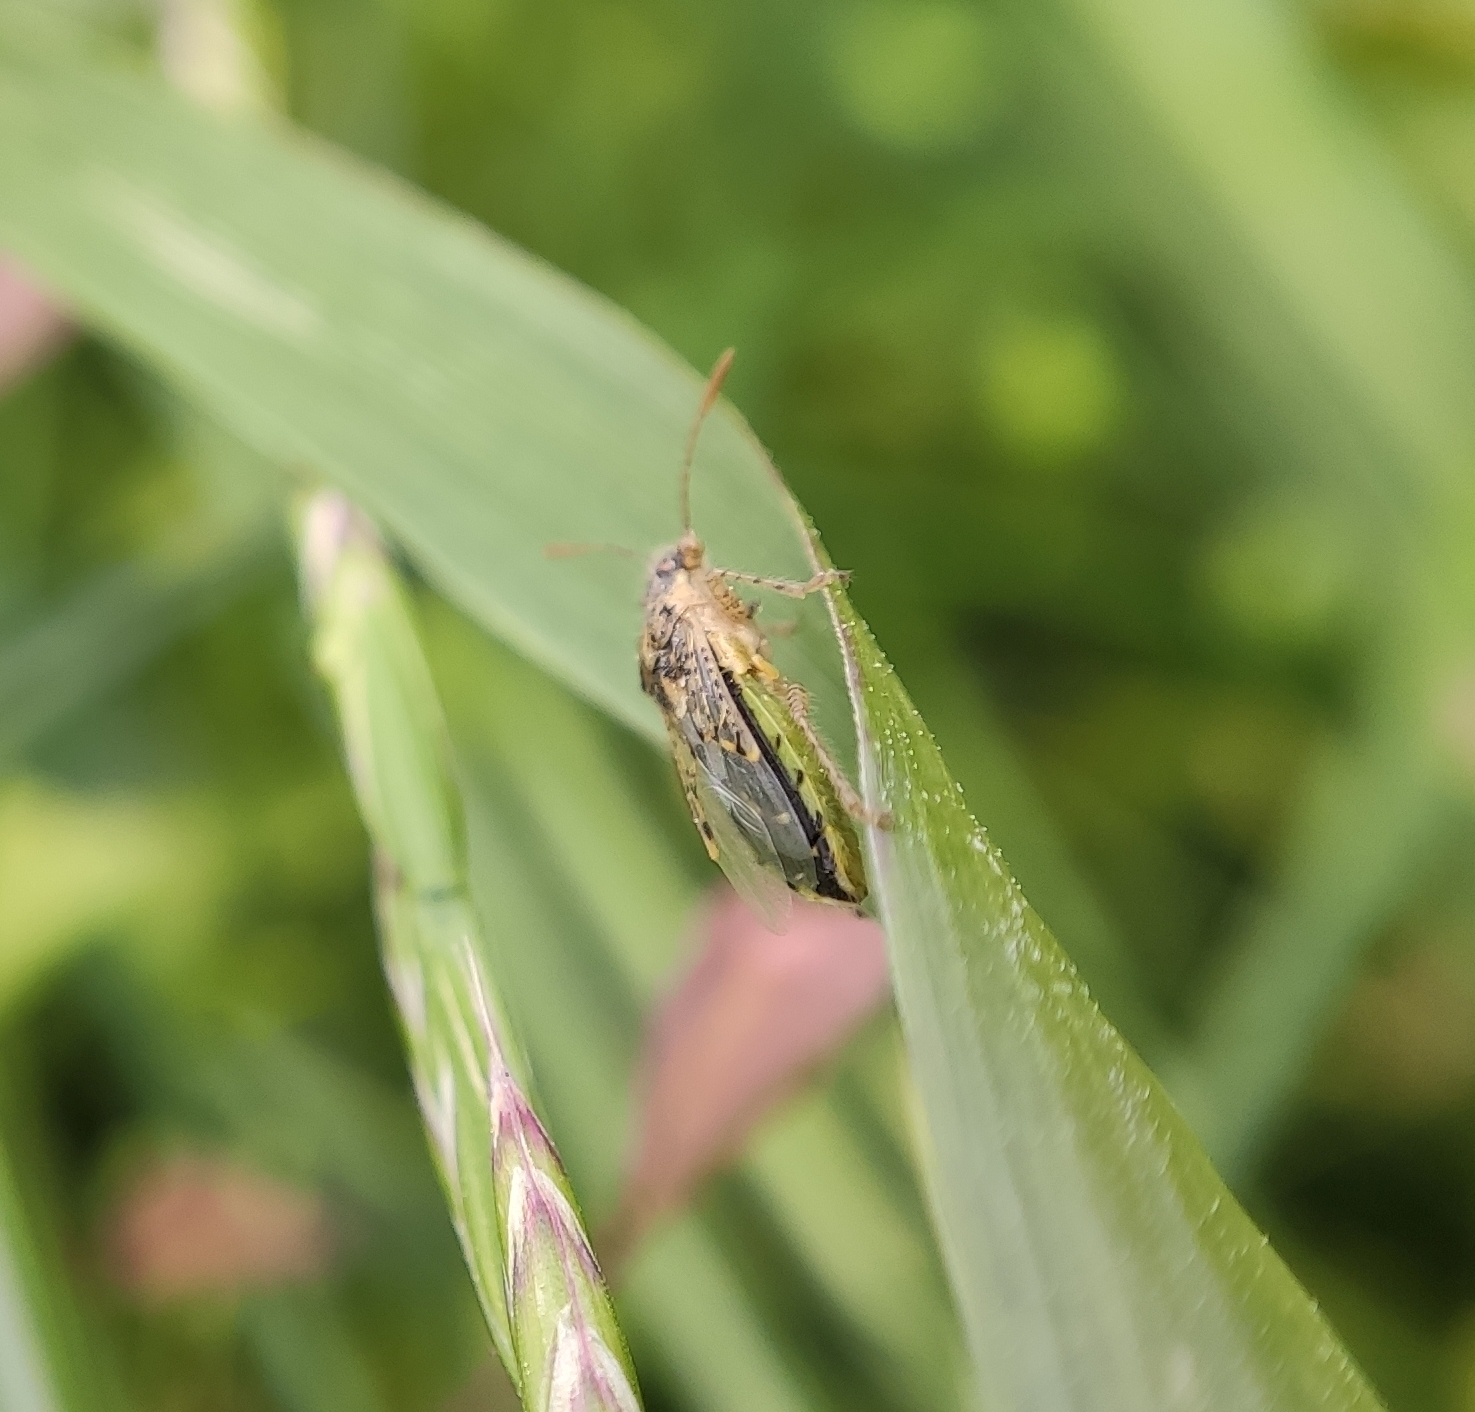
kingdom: Animalia
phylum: Arthropoda
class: Insecta
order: Hemiptera
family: Rhopalidae
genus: Brachycarenus
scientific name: Brachycarenus tigrinus
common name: Scentless plant bug
